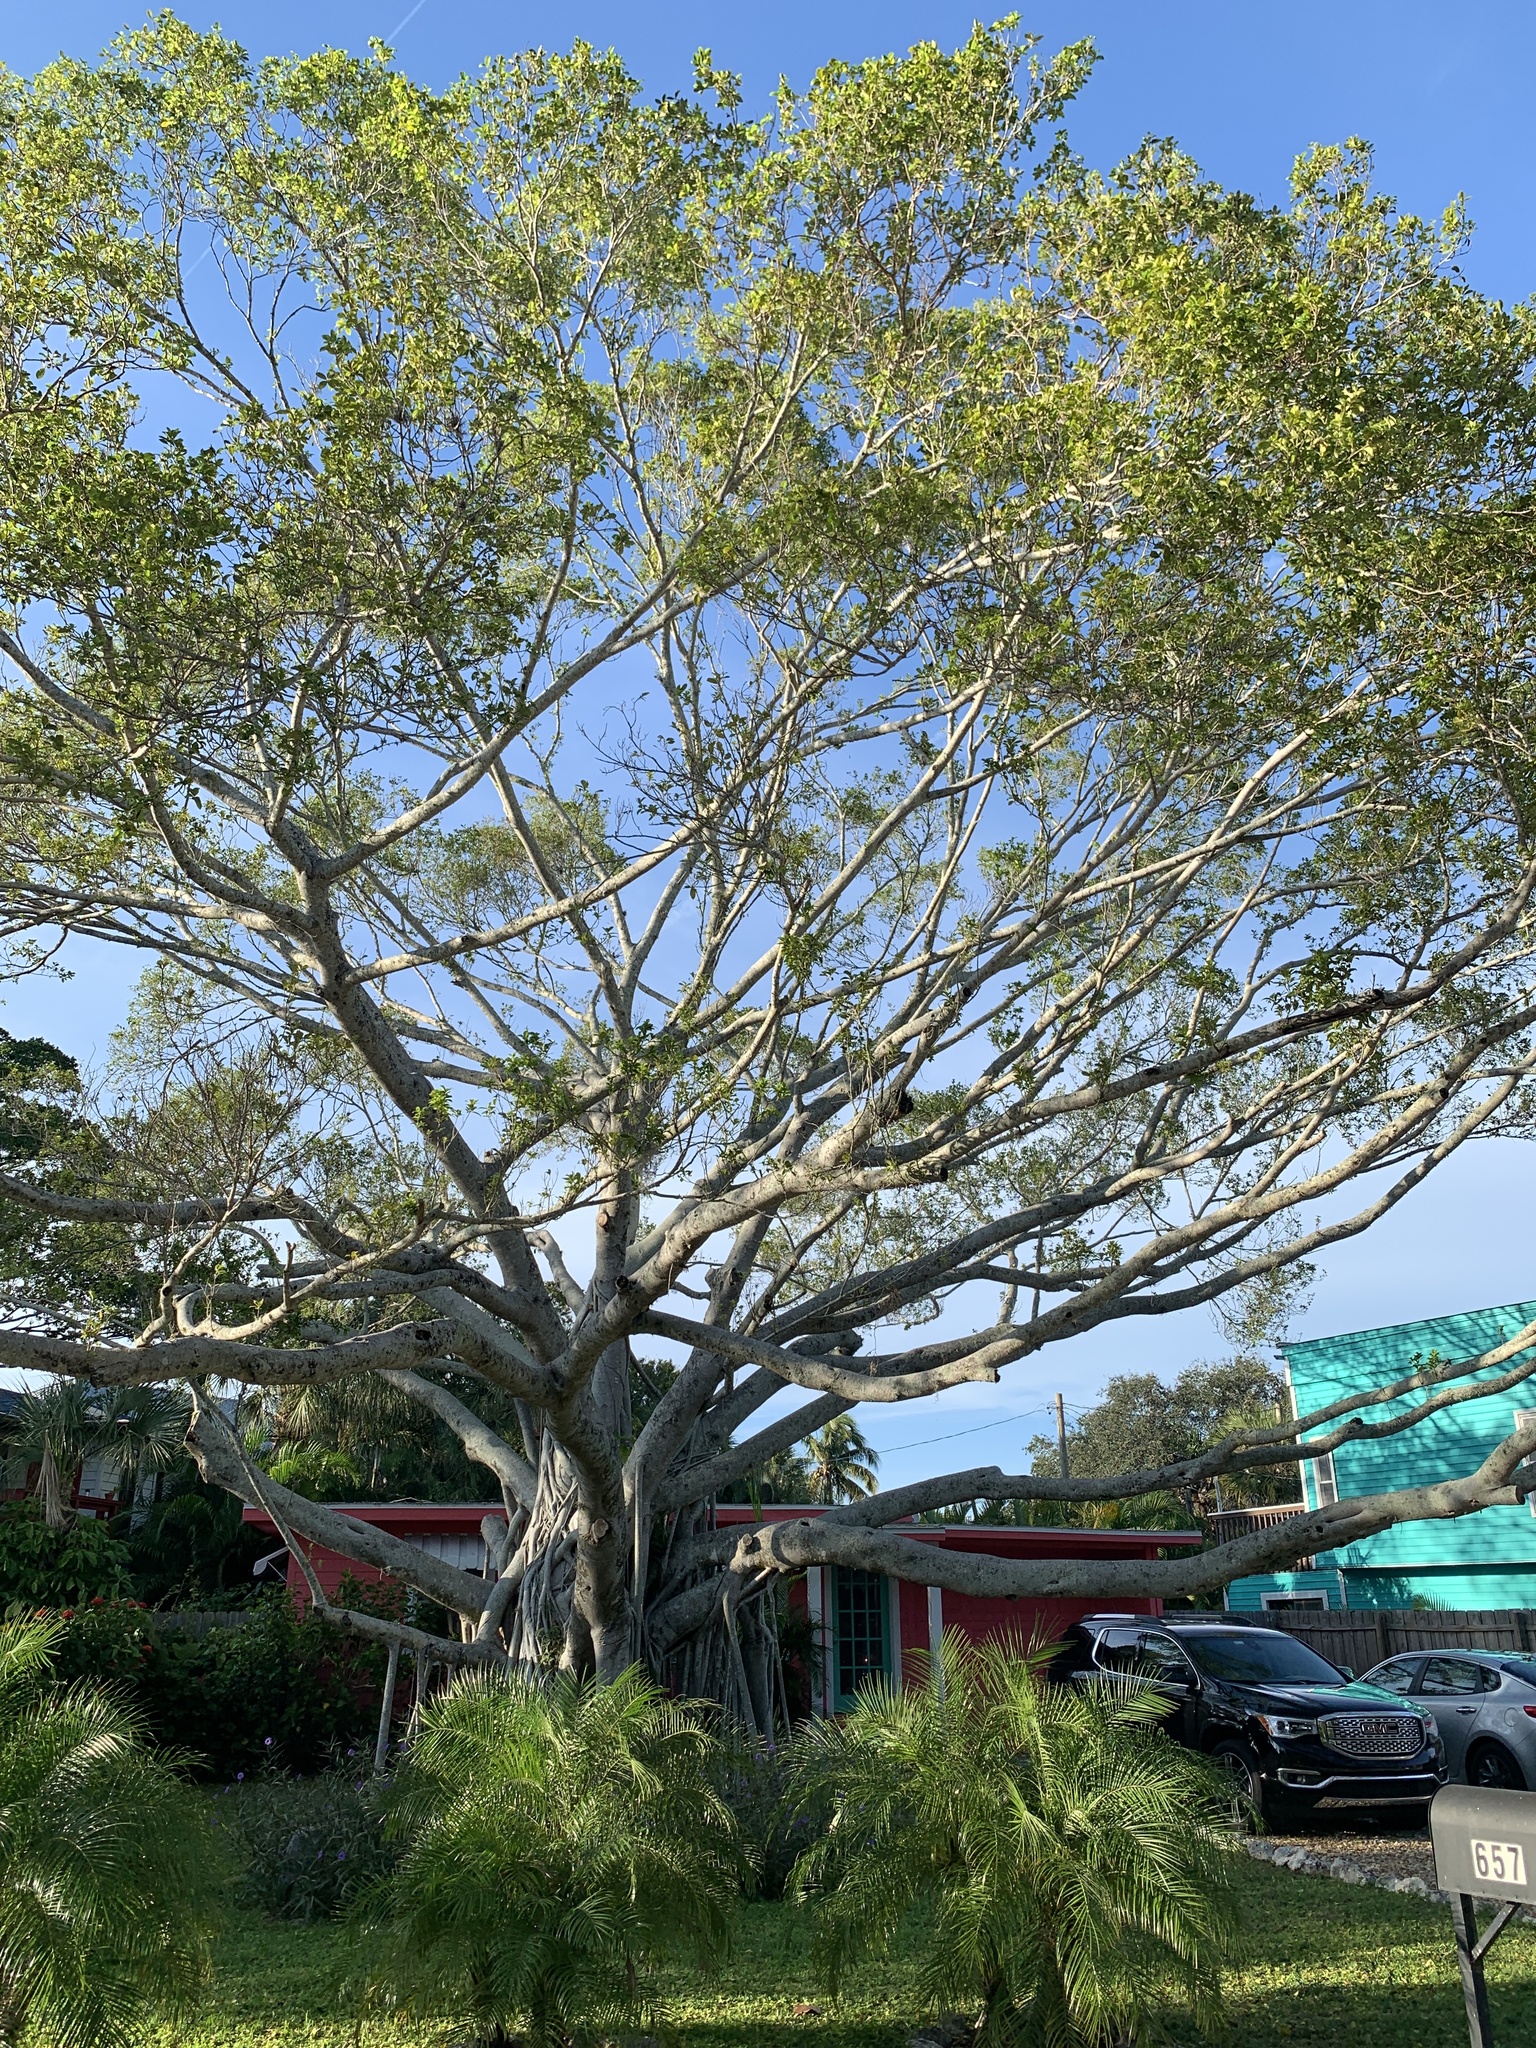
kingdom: Plantae
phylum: Tracheophyta
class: Magnoliopsida
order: Rosales
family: Moraceae
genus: Ficus
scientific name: Ficus microcarpa
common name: Chinese banyan
